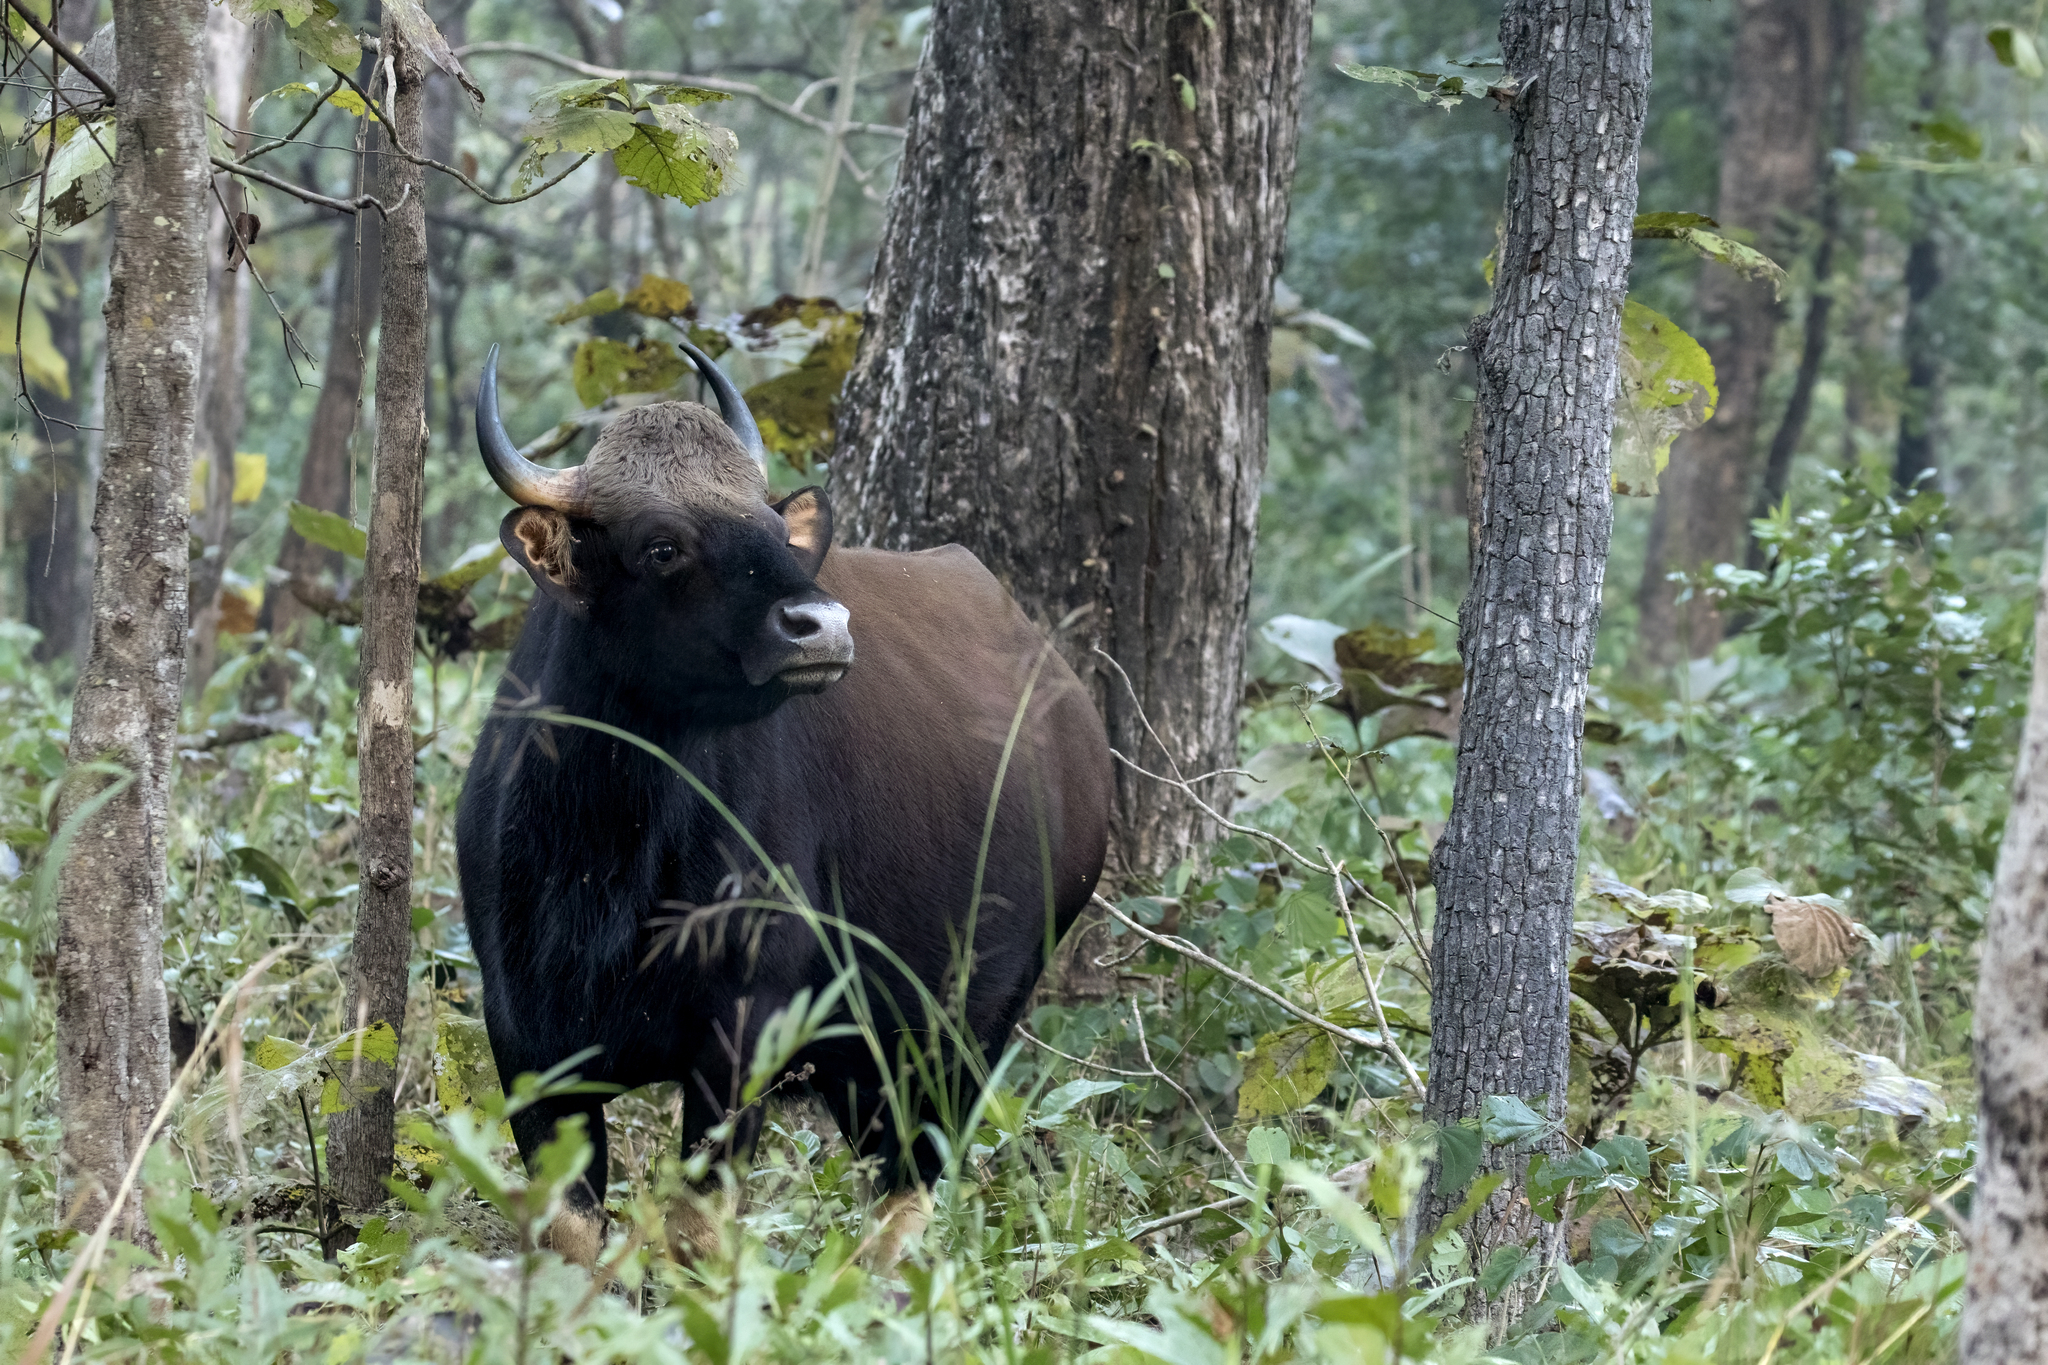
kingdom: Animalia
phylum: Chordata
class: Mammalia
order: Artiodactyla
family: Bovidae
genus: Bos
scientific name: Bos frontalis
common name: Gaur
